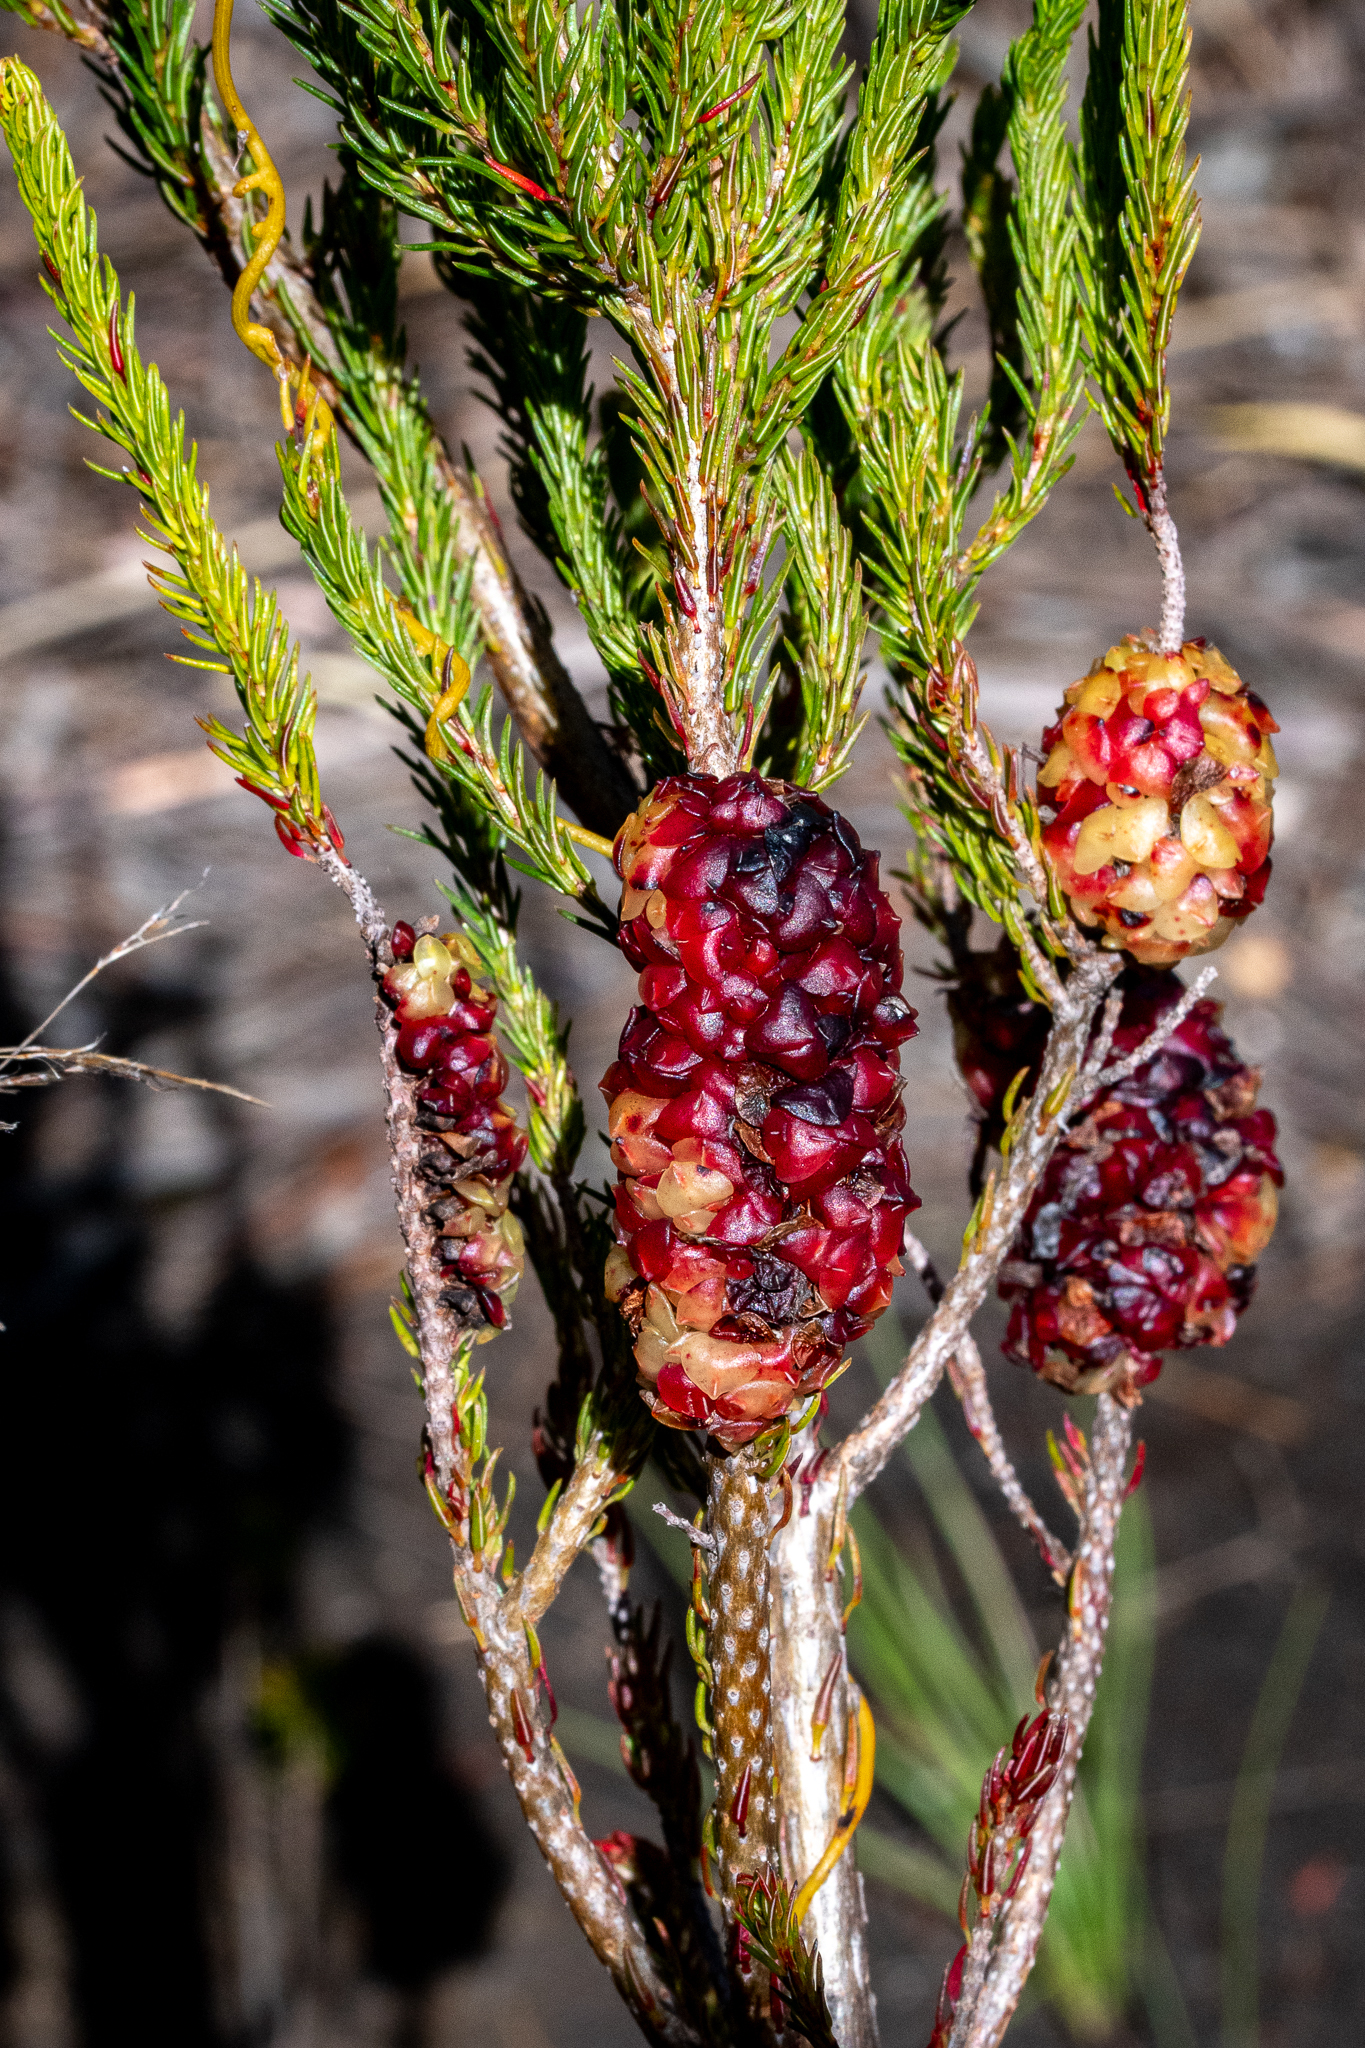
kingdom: Plantae
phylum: Tracheophyta
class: Magnoliopsida
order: Ericales
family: Ericaceae
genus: Erica
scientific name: Erica sessiliflora
